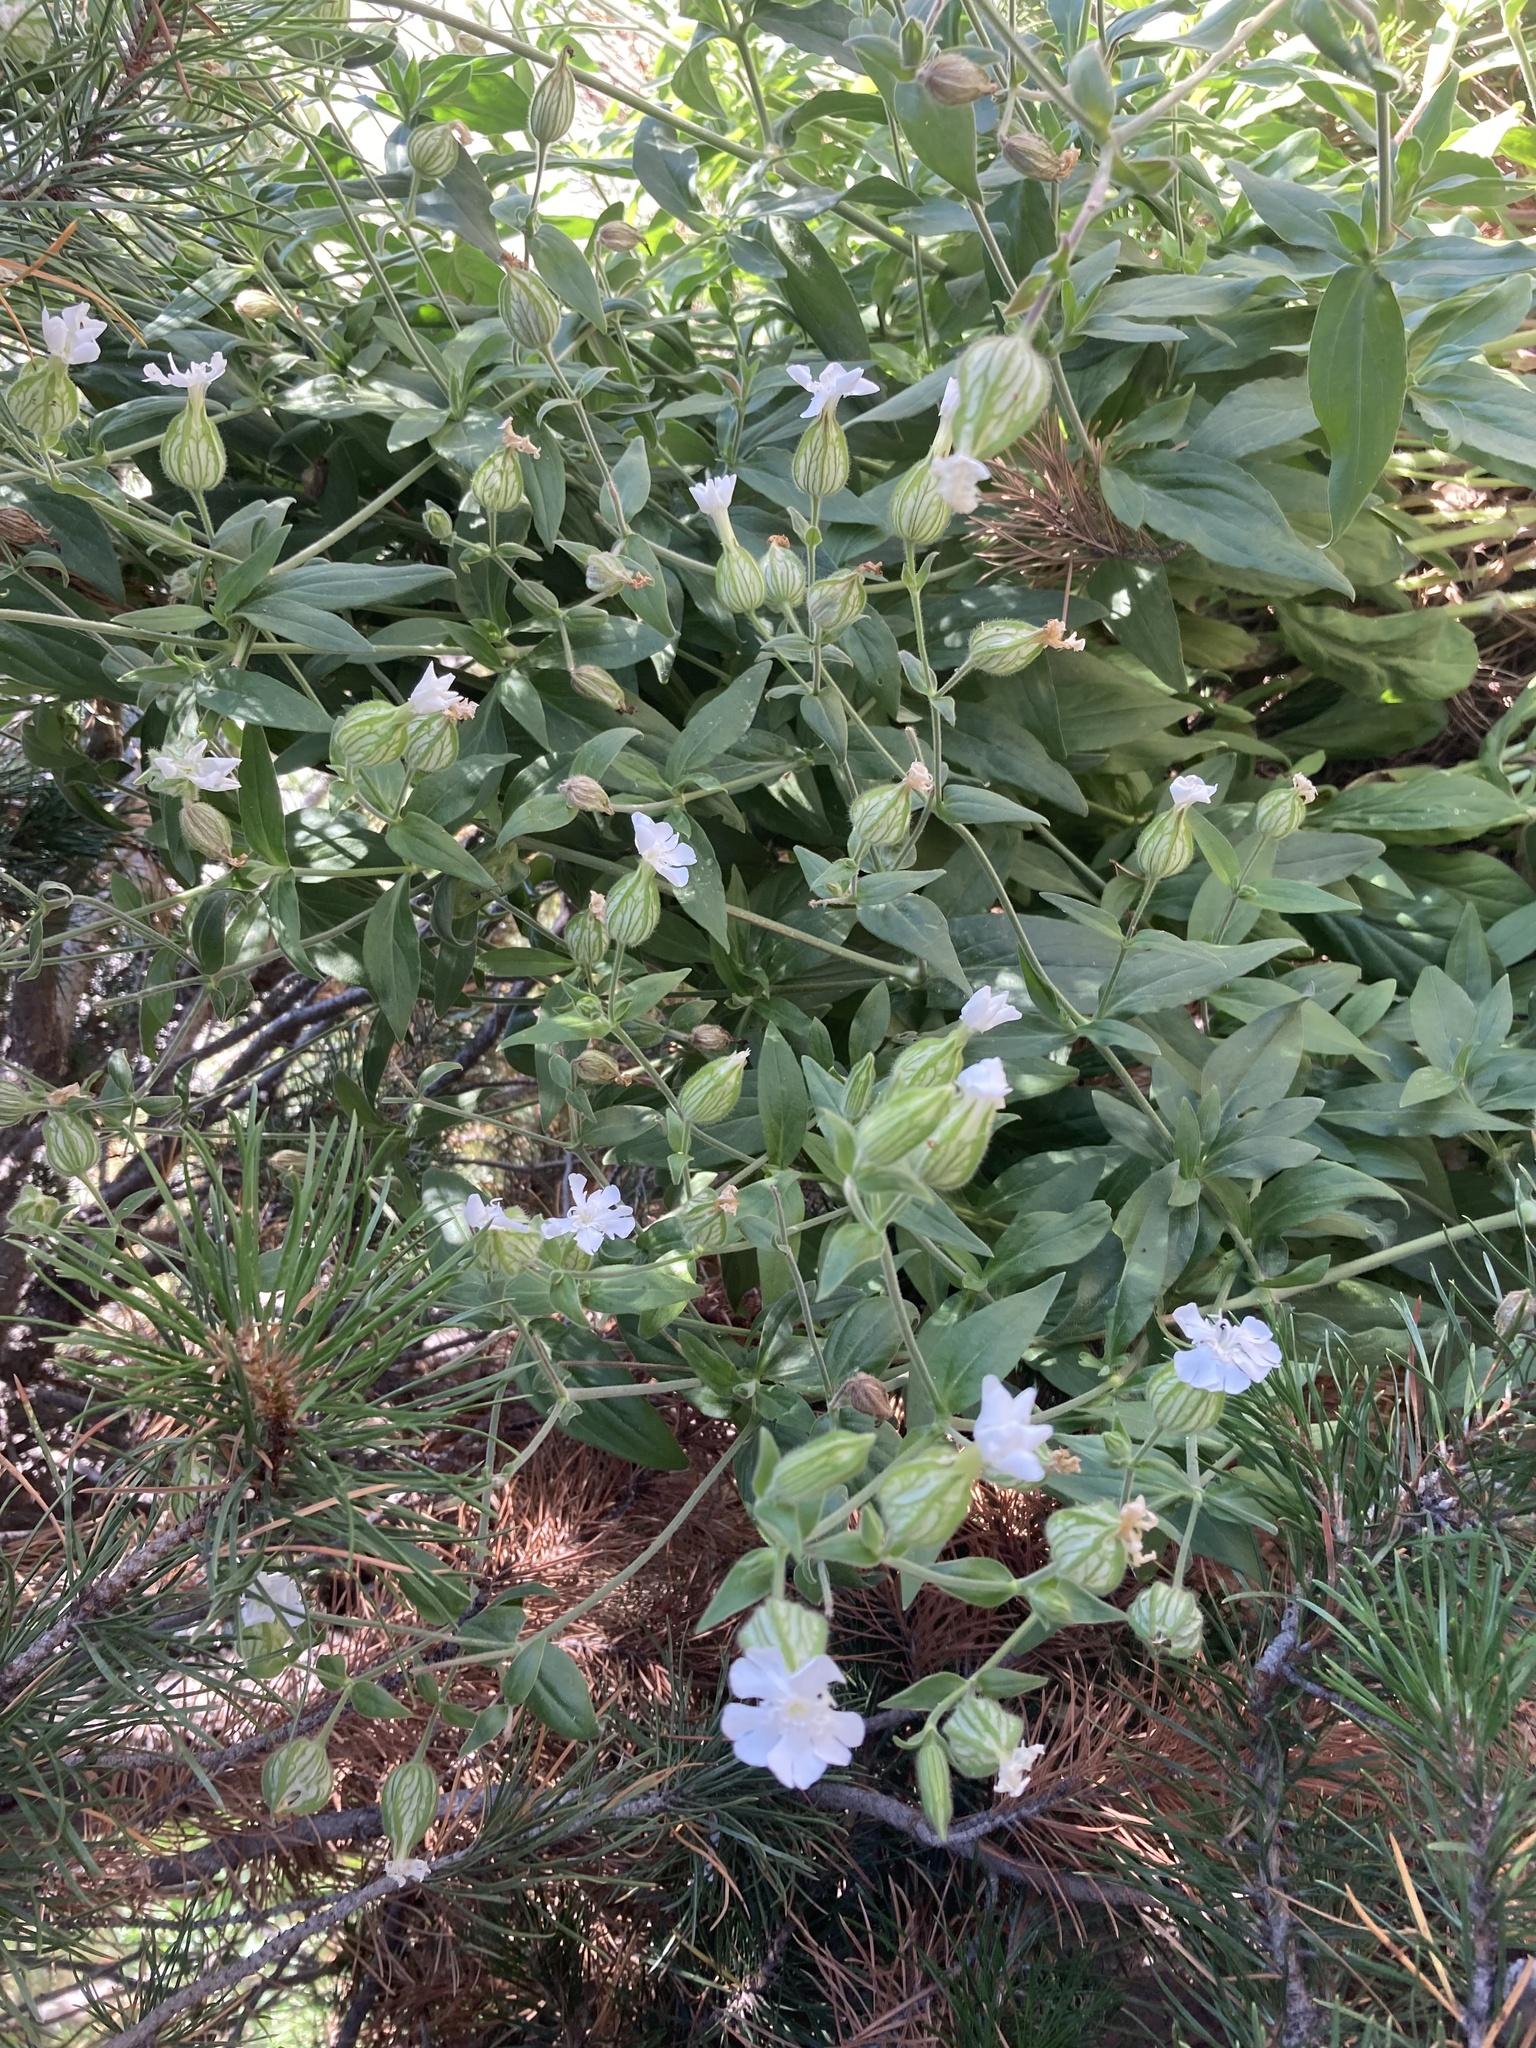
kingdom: Plantae
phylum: Tracheophyta
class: Magnoliopsida
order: Caryophyllales
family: Caryophyllaceae
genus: Silene
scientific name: Silene latifolia
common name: White campion
